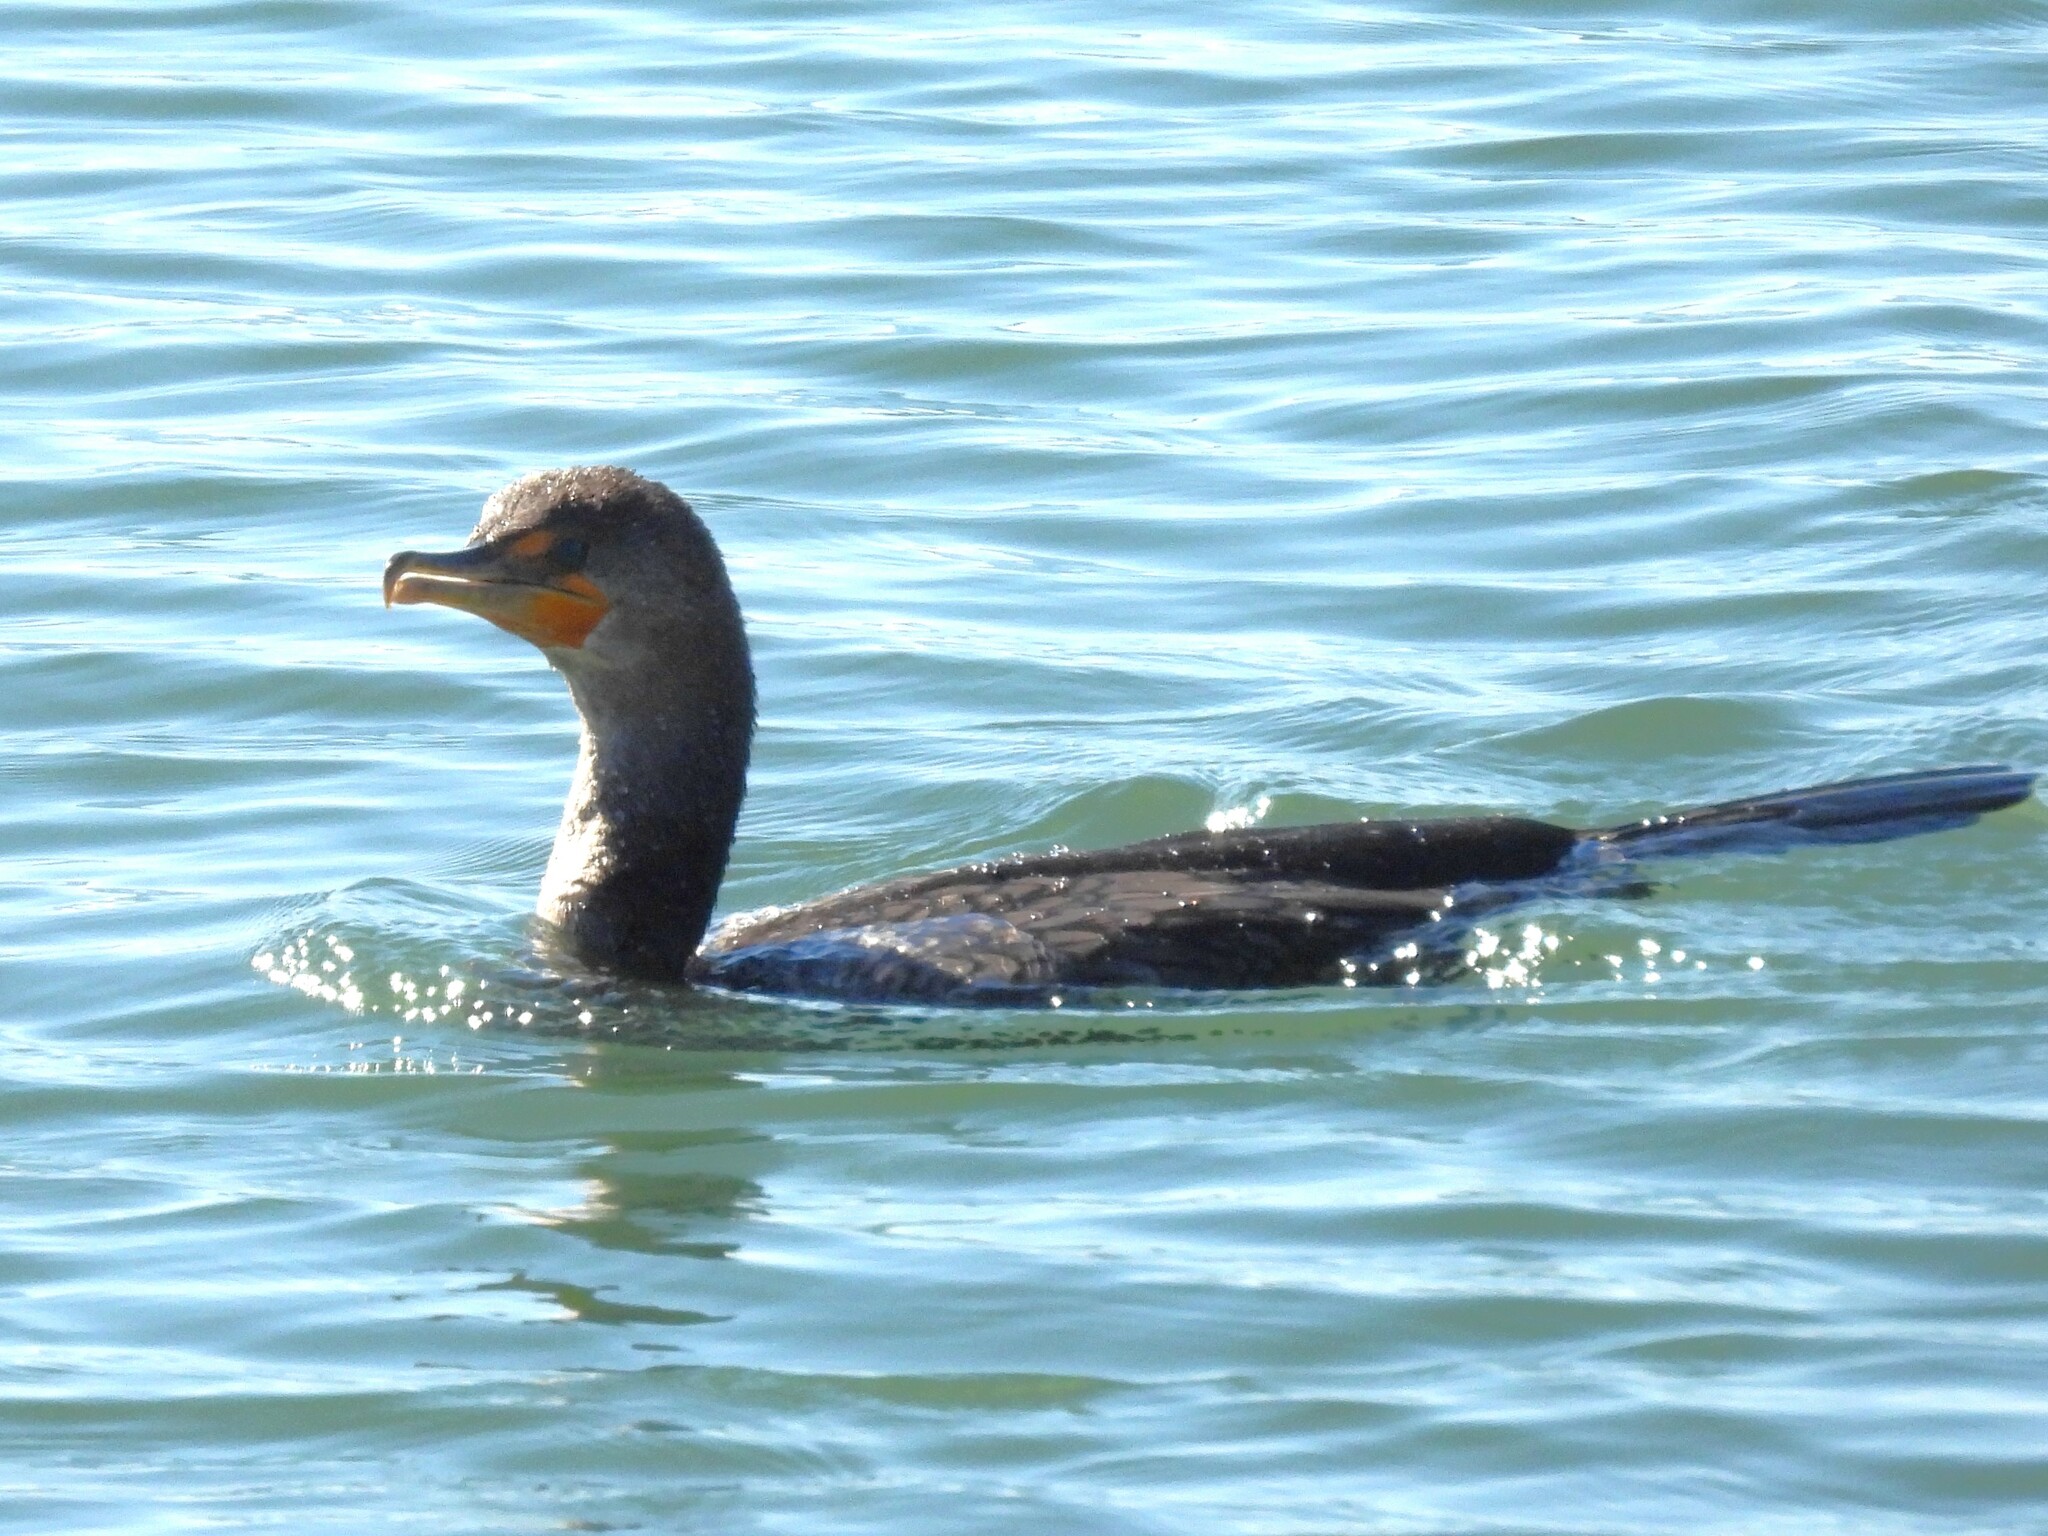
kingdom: Animalia
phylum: Chordata
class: Aves
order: Suliformes
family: Phalacrocoracidae
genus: Phalacrocorax
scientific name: Phalacrocorax auritus
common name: Double-crested cormorant
